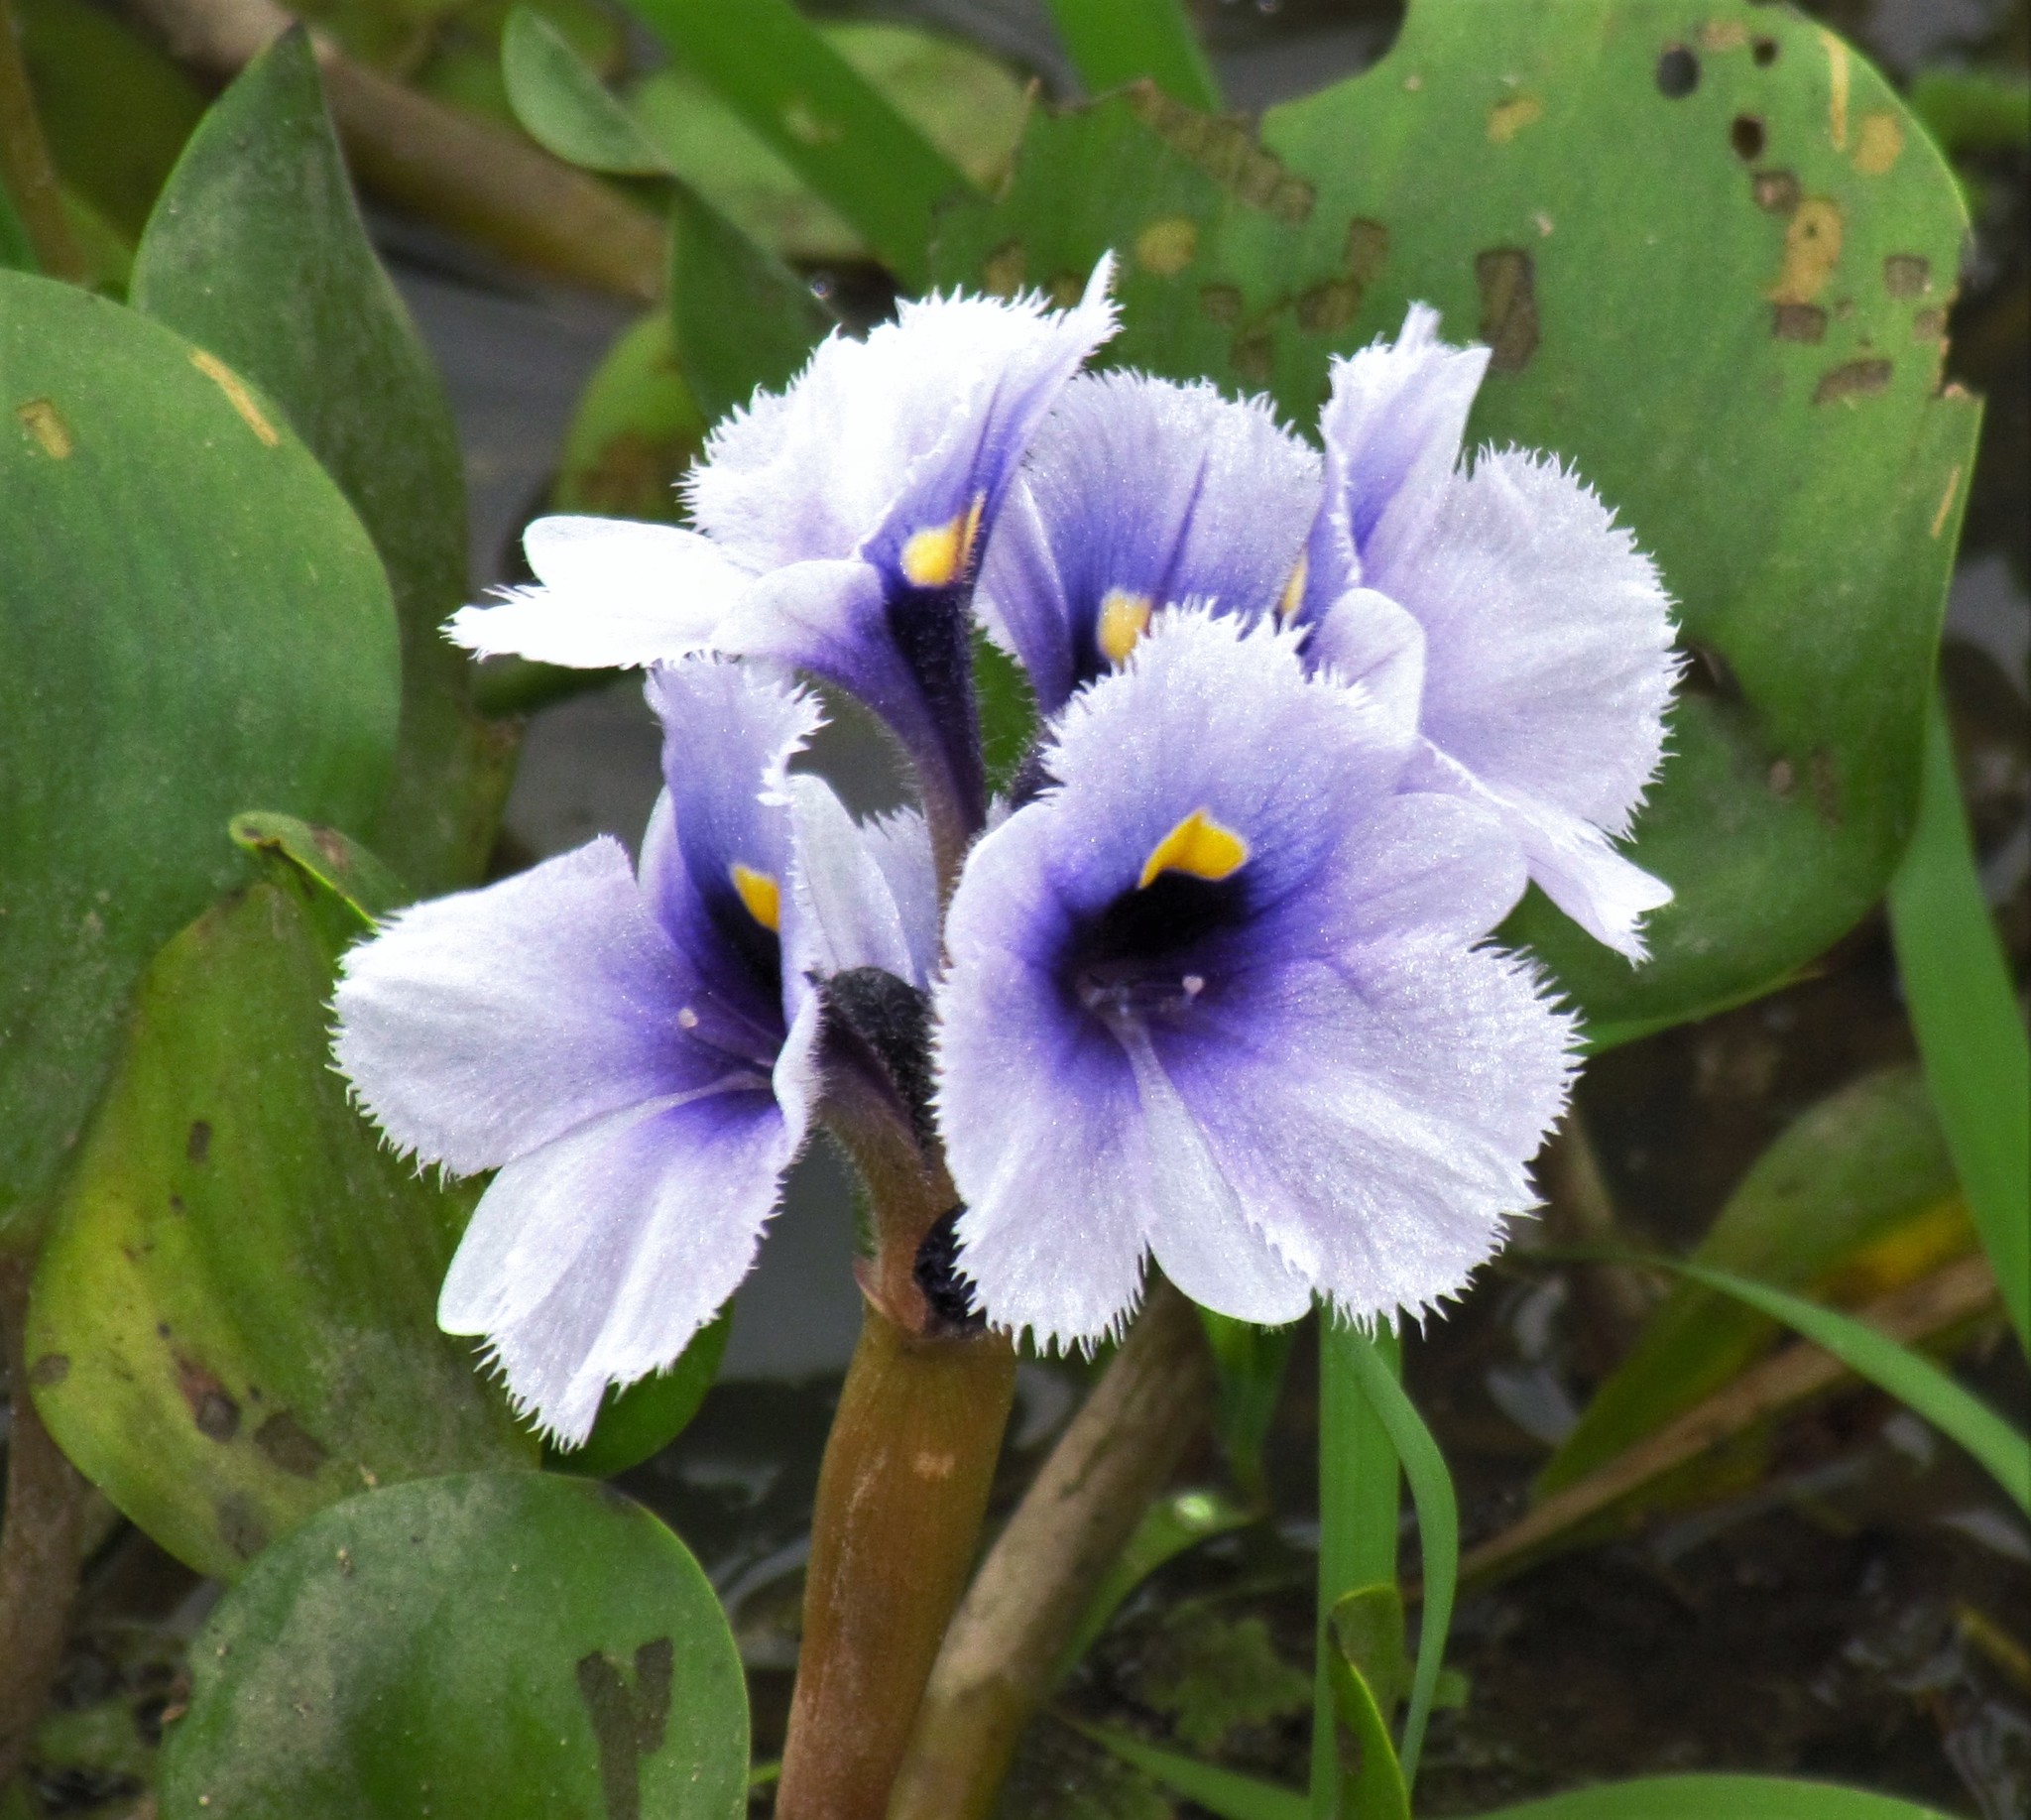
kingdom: Plantae
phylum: Tracheophyta
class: Liliopsida
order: Commelinales
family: Pontederiaceae
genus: Pontederia
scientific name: Pontederia azurea
